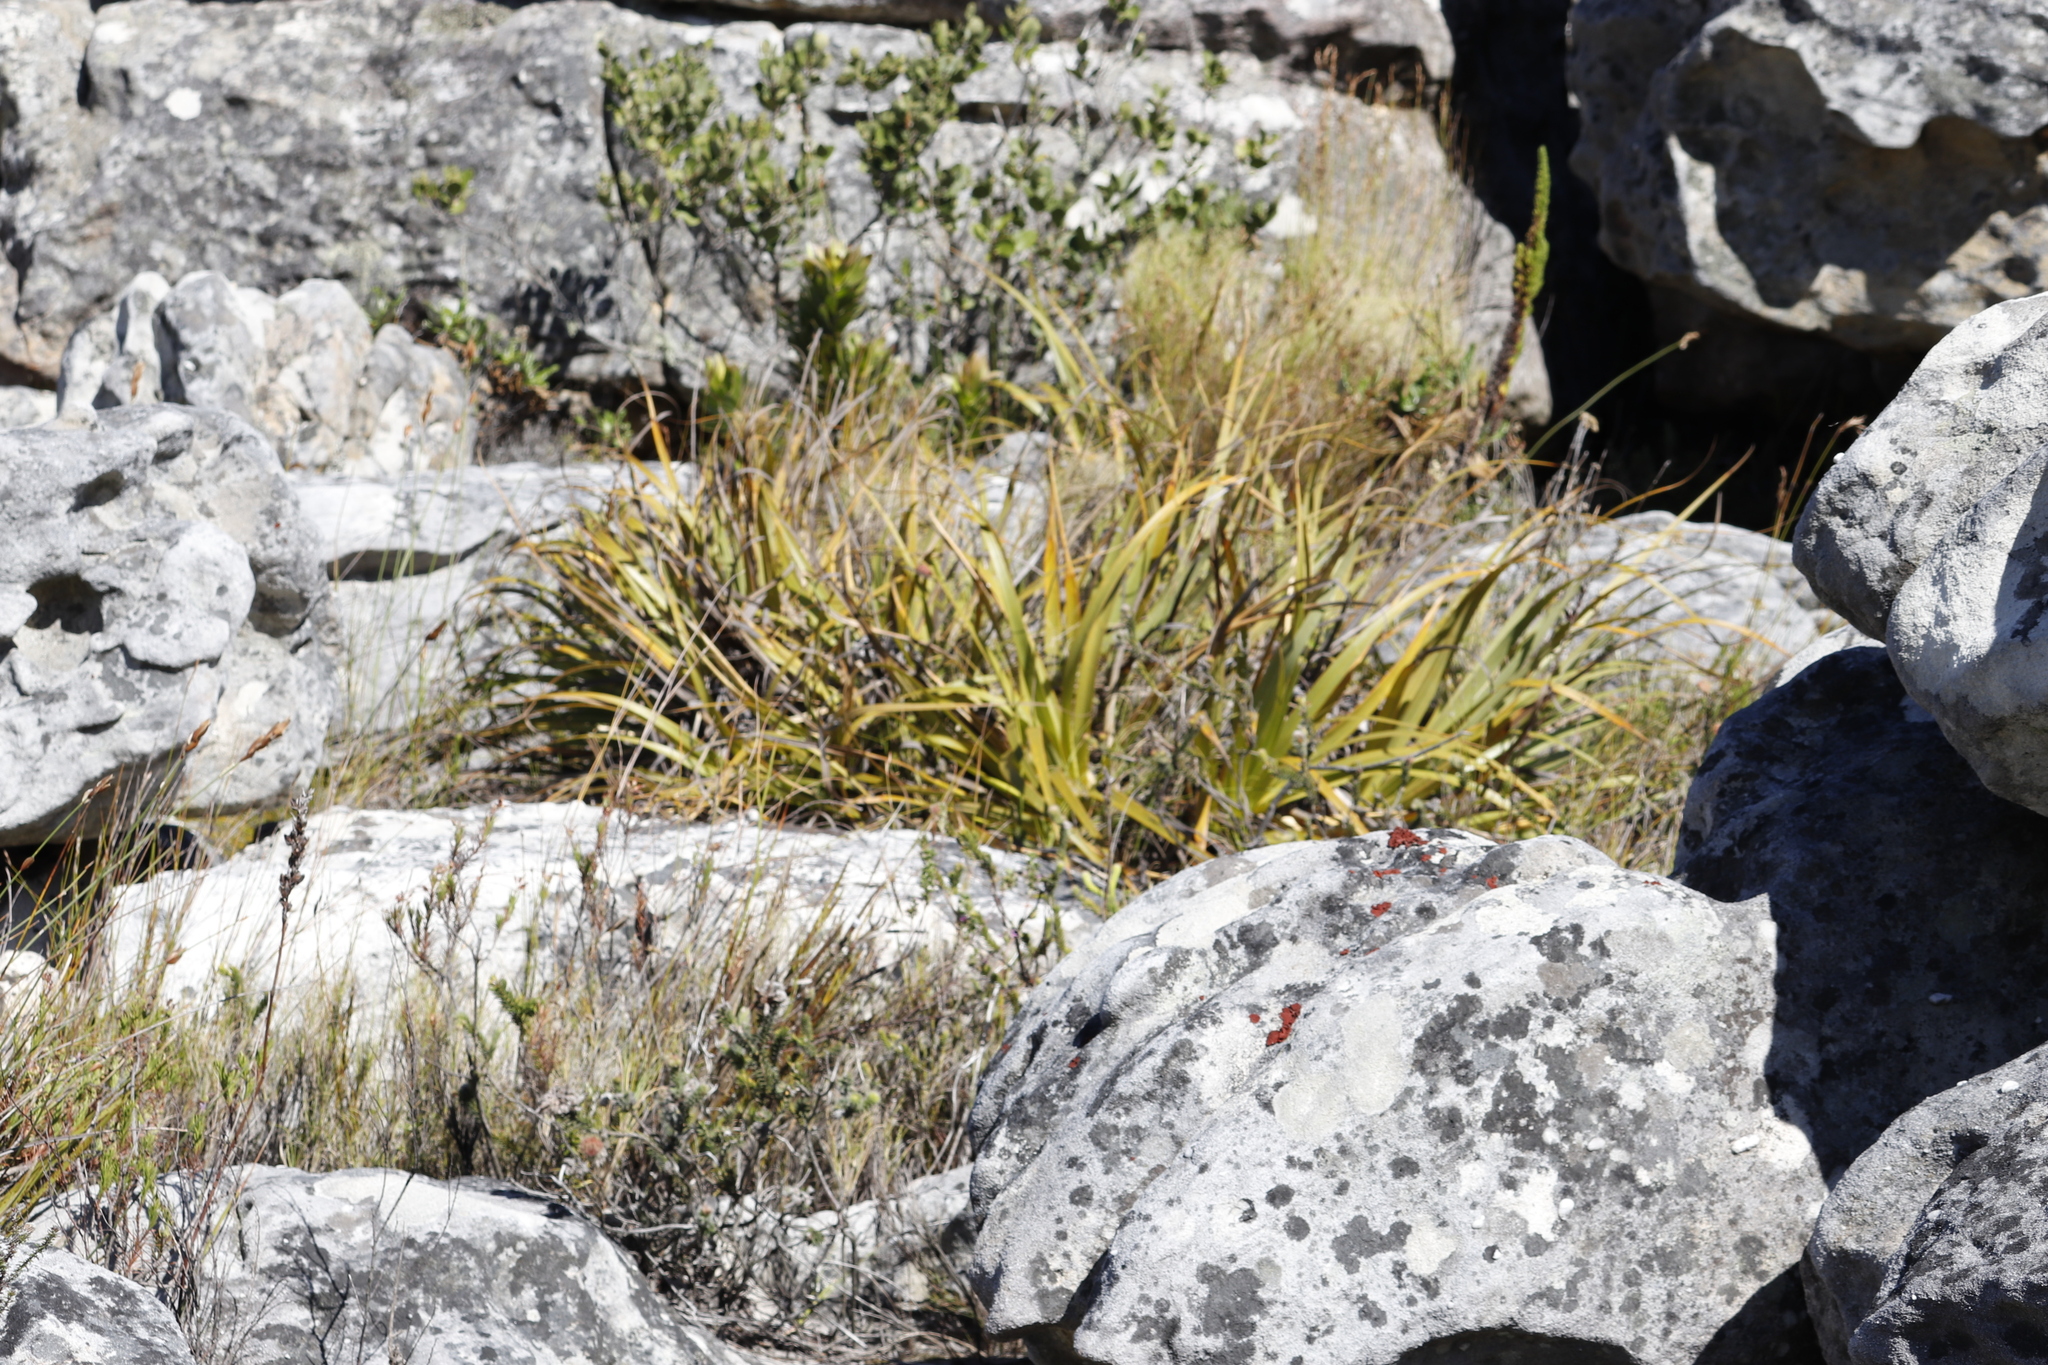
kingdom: Plantae
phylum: Tracheophyta
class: Liliopsida
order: Poales
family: Cyperaceae
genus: Tetraria
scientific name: Tetraria thermalis
